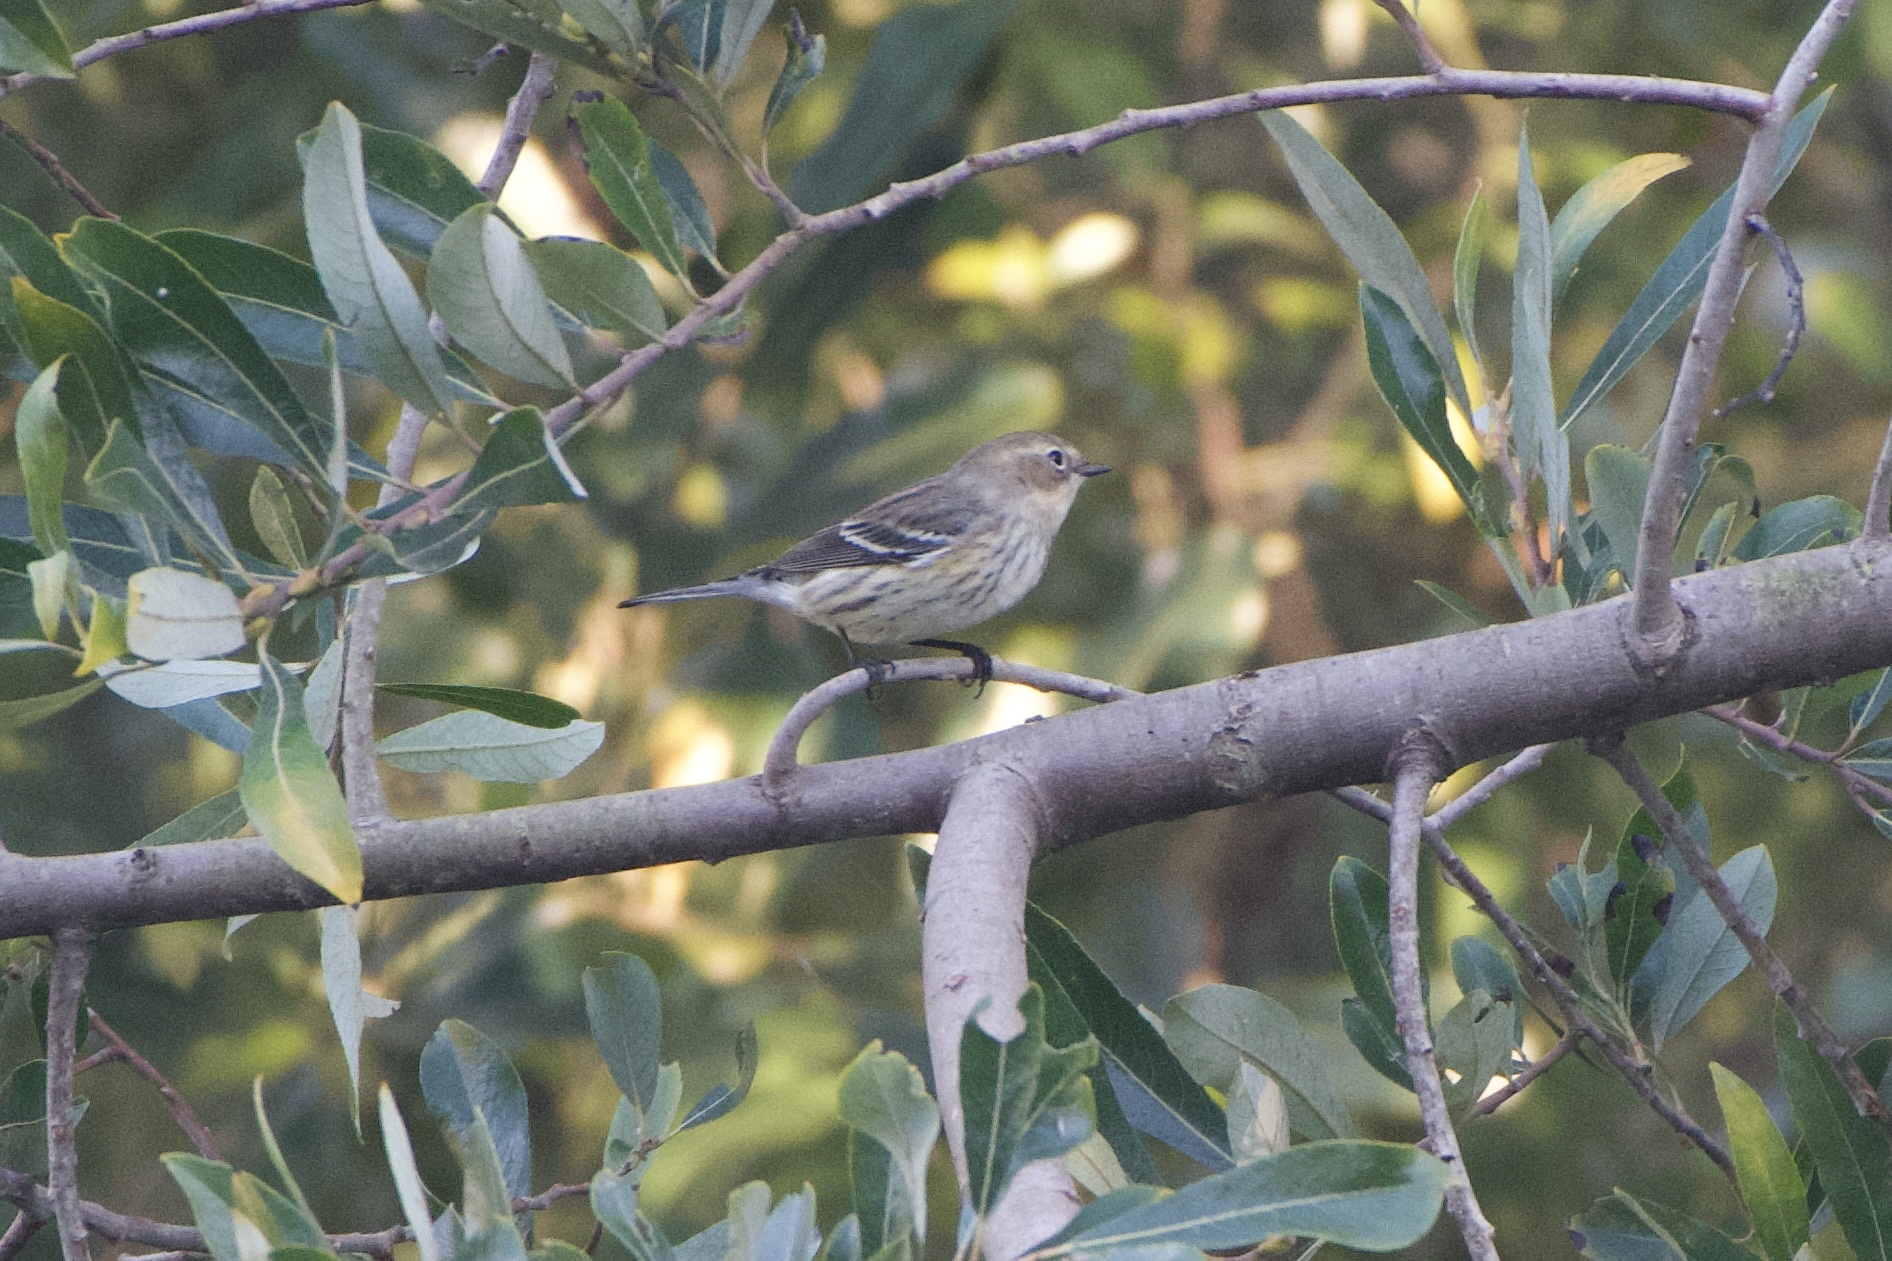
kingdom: Animalia
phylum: Chordata
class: Aves
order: Passeriformes
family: Parulidae
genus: Setophaga
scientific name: Setophaga coronata
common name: Myrtle warbler
